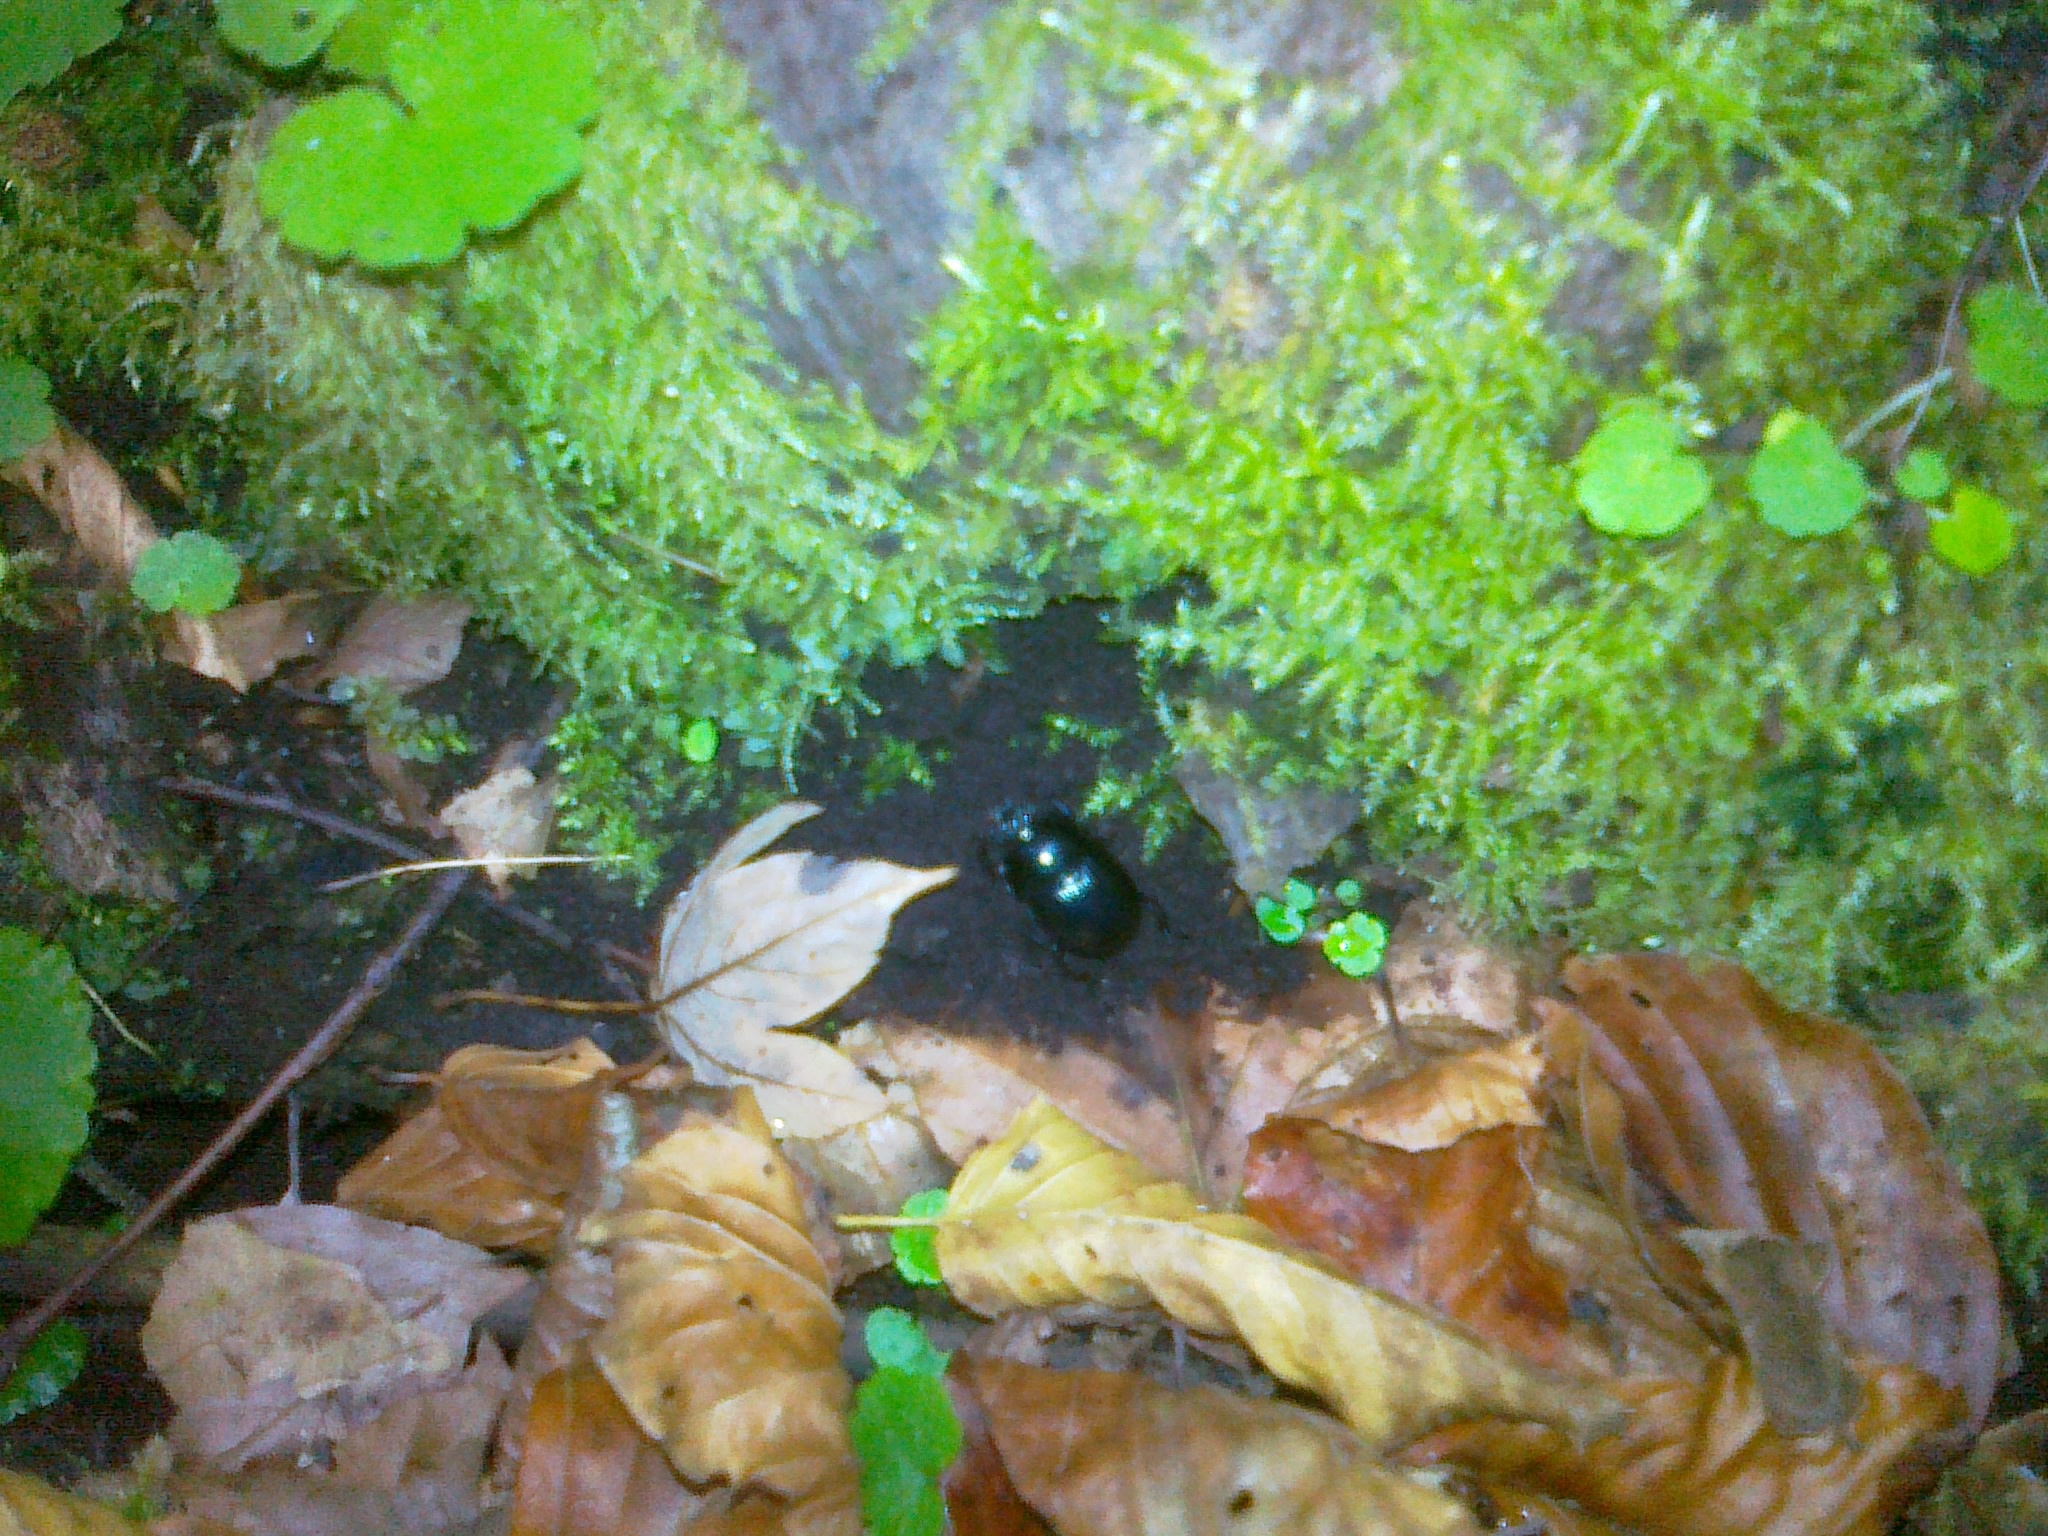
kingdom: Animalia
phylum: Arthropoda
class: Insecta
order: Coleoptera
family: Geotrupidae
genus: Anoplotrupes
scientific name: Anoplotrupes stercorosus
